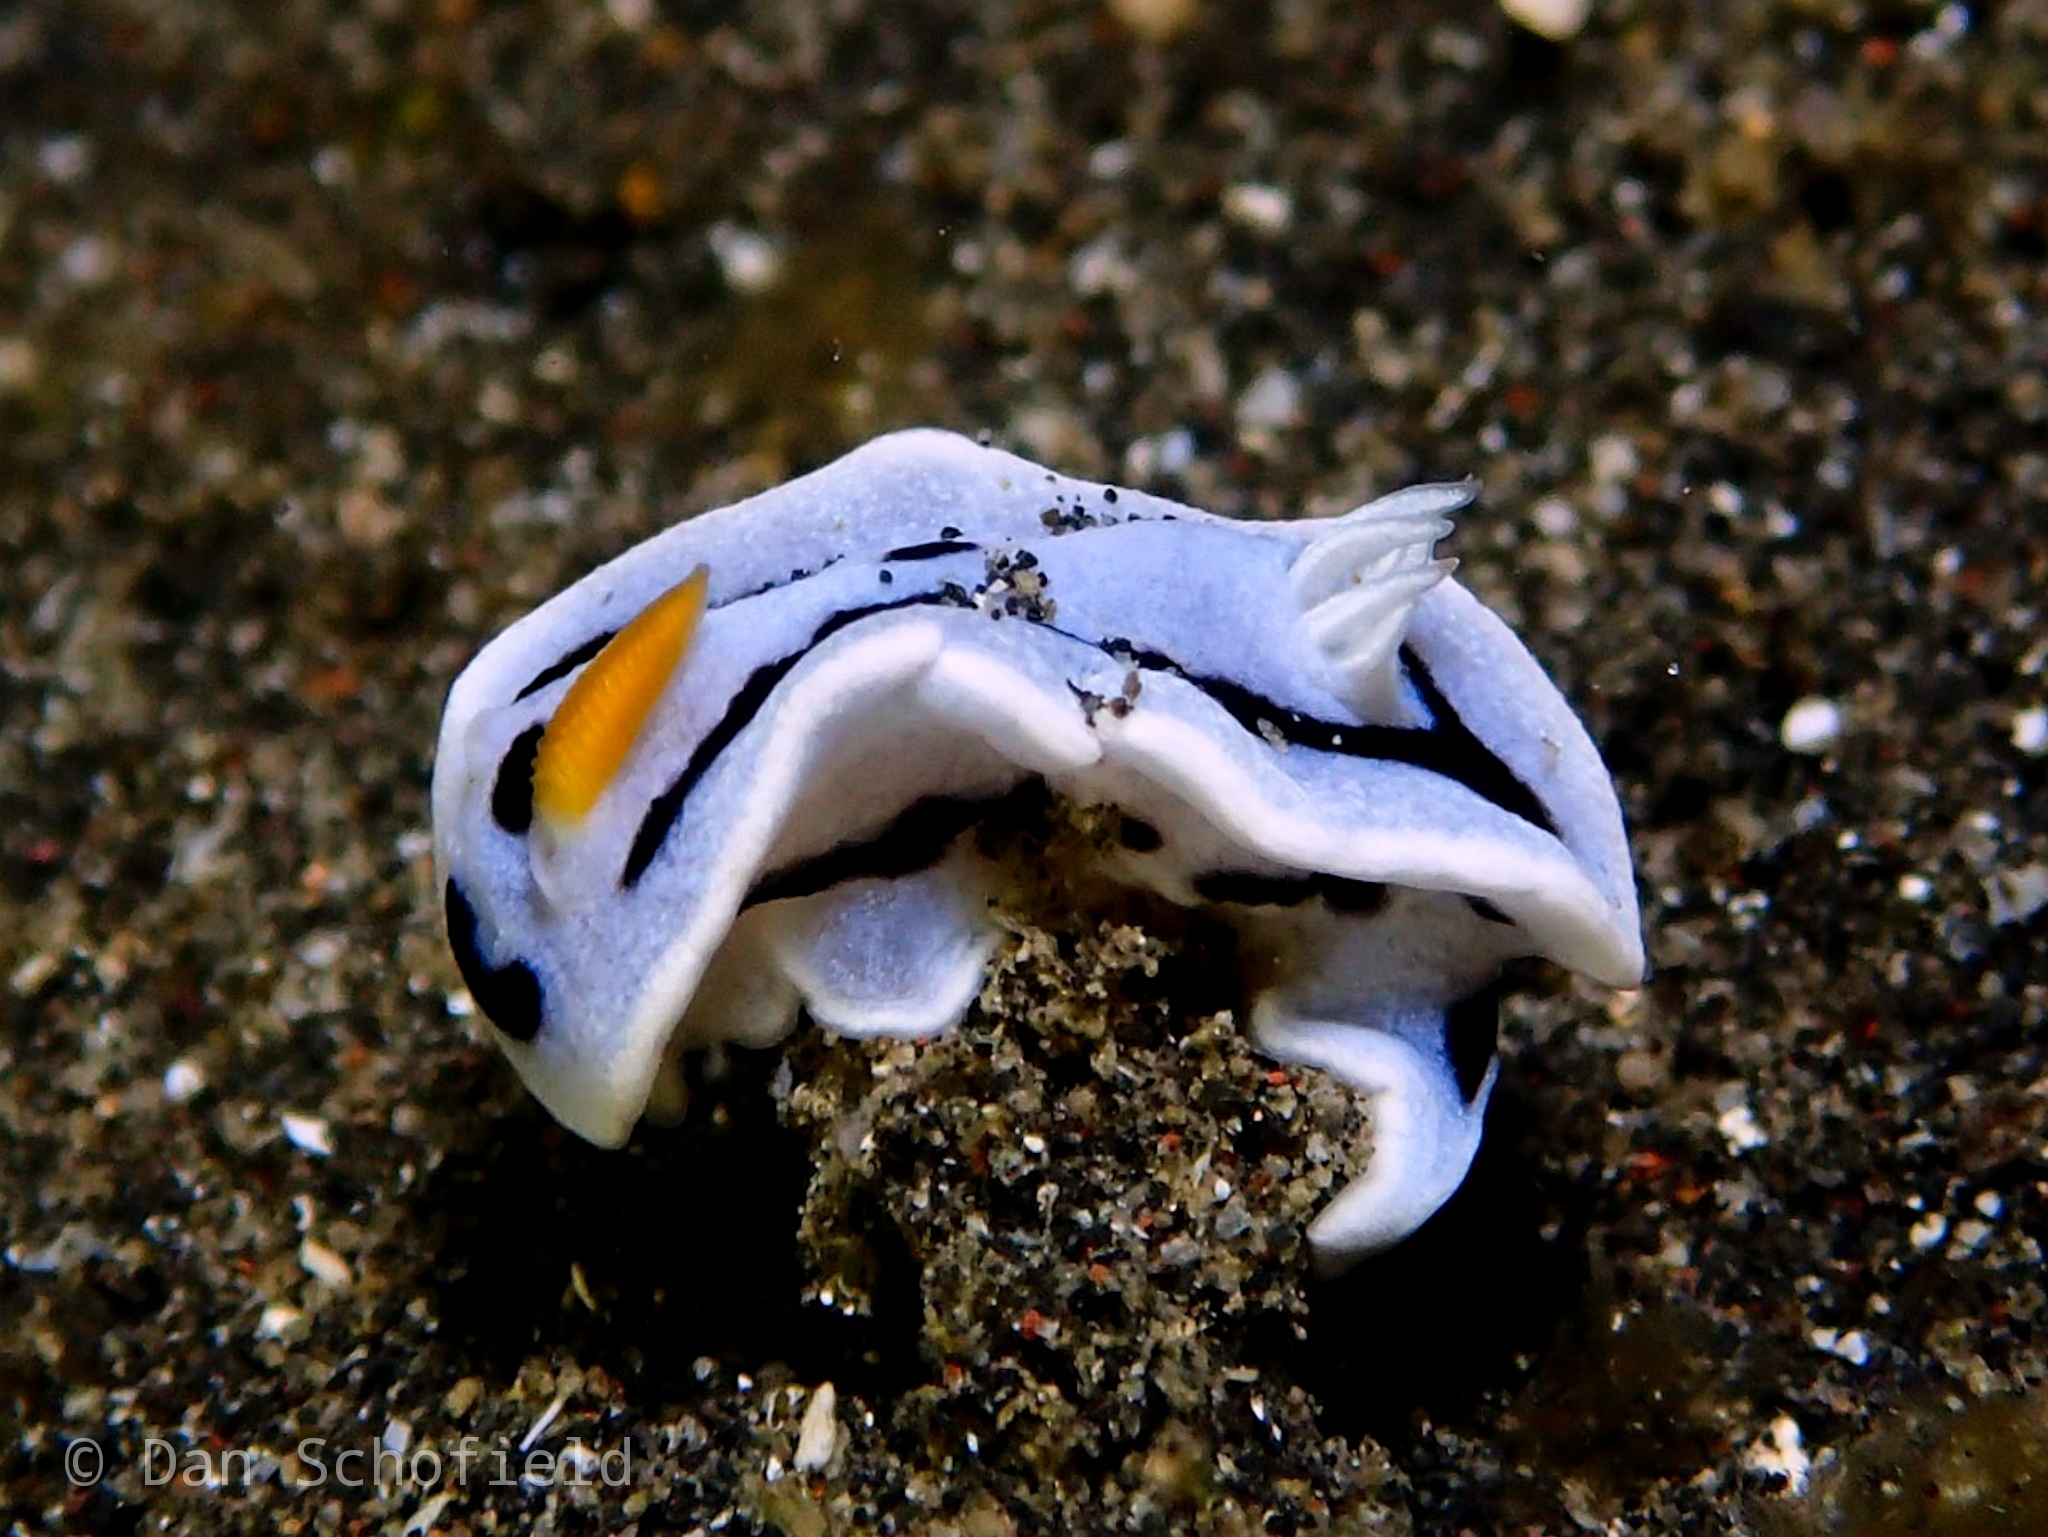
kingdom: Animalia
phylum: Mollusca
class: Gastropoda
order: Nudibranchia
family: Chromodorididae
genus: Chromodoris
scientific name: Chromodoris alcalai
